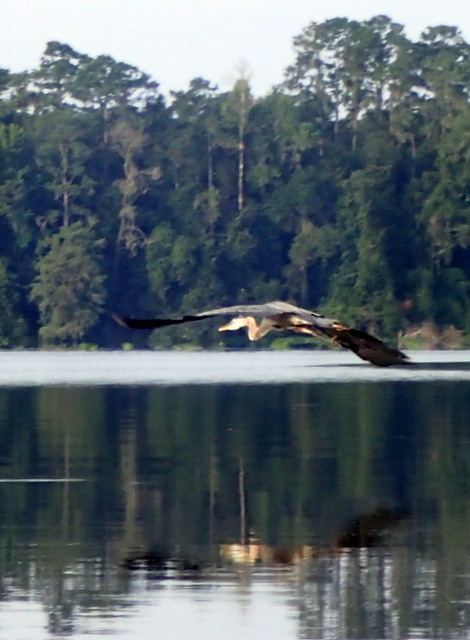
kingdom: Animalia
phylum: Chordata
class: Aves
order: Pelecaniformes
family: Ardeidae
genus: Ardea
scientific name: Ardea herodias
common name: Great blue heron
